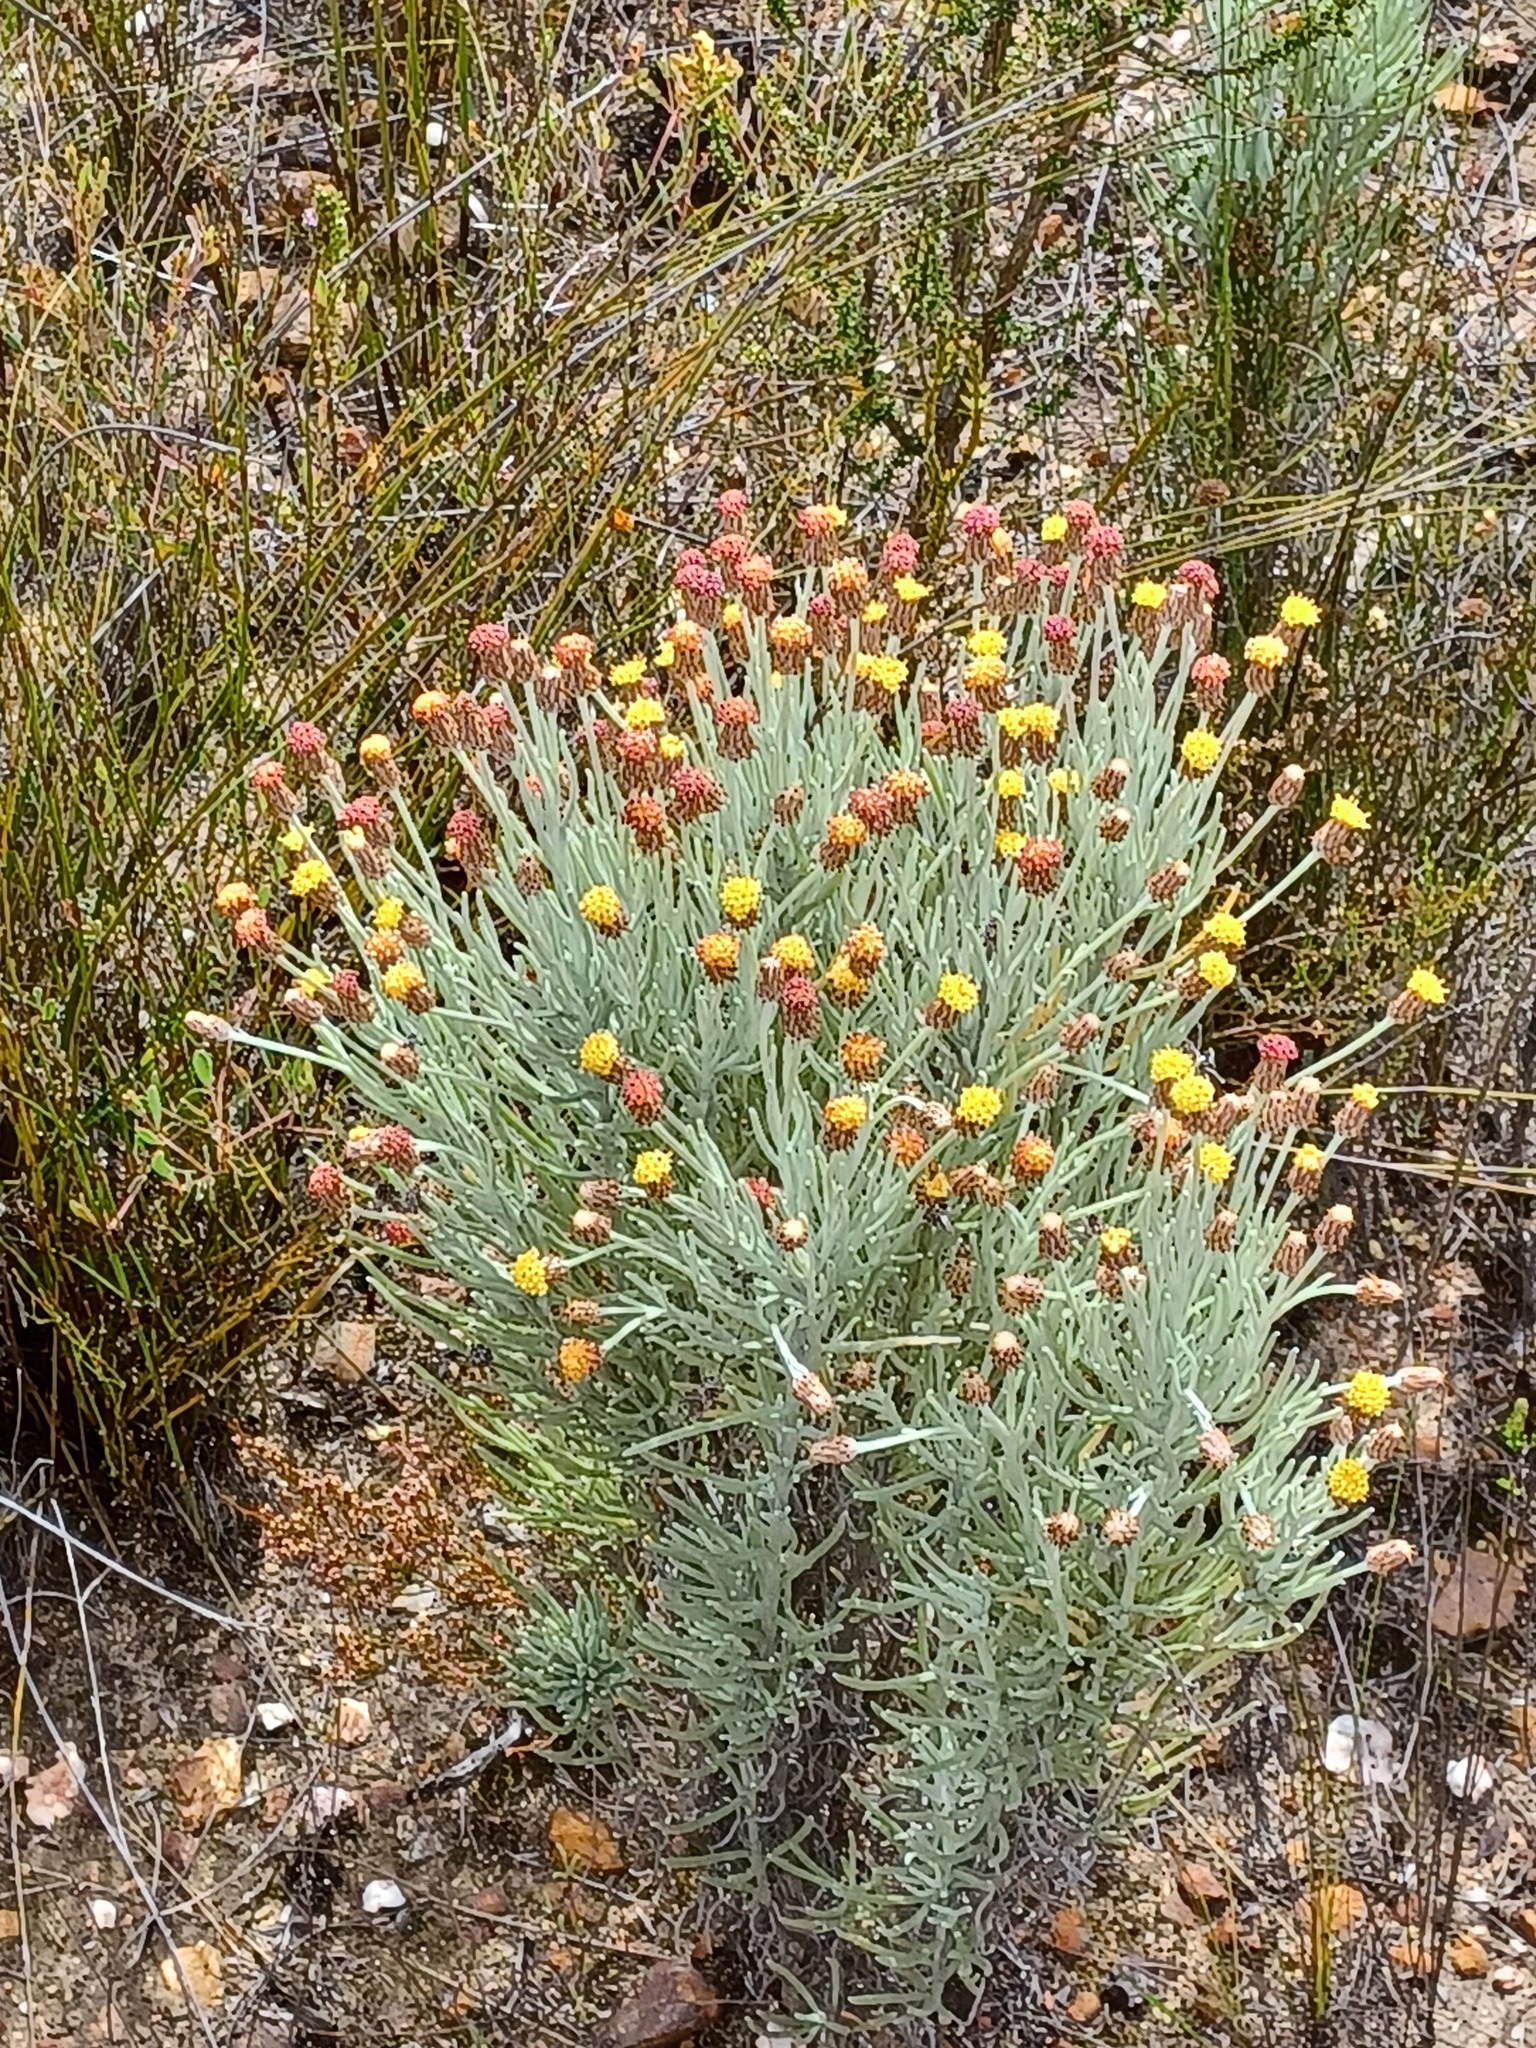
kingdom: Plantae
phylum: Tracheophyta
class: Magnoliopsida
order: Asterales
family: Asteraceae
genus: Syncarpha
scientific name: Syncarpha gnaphaloides
